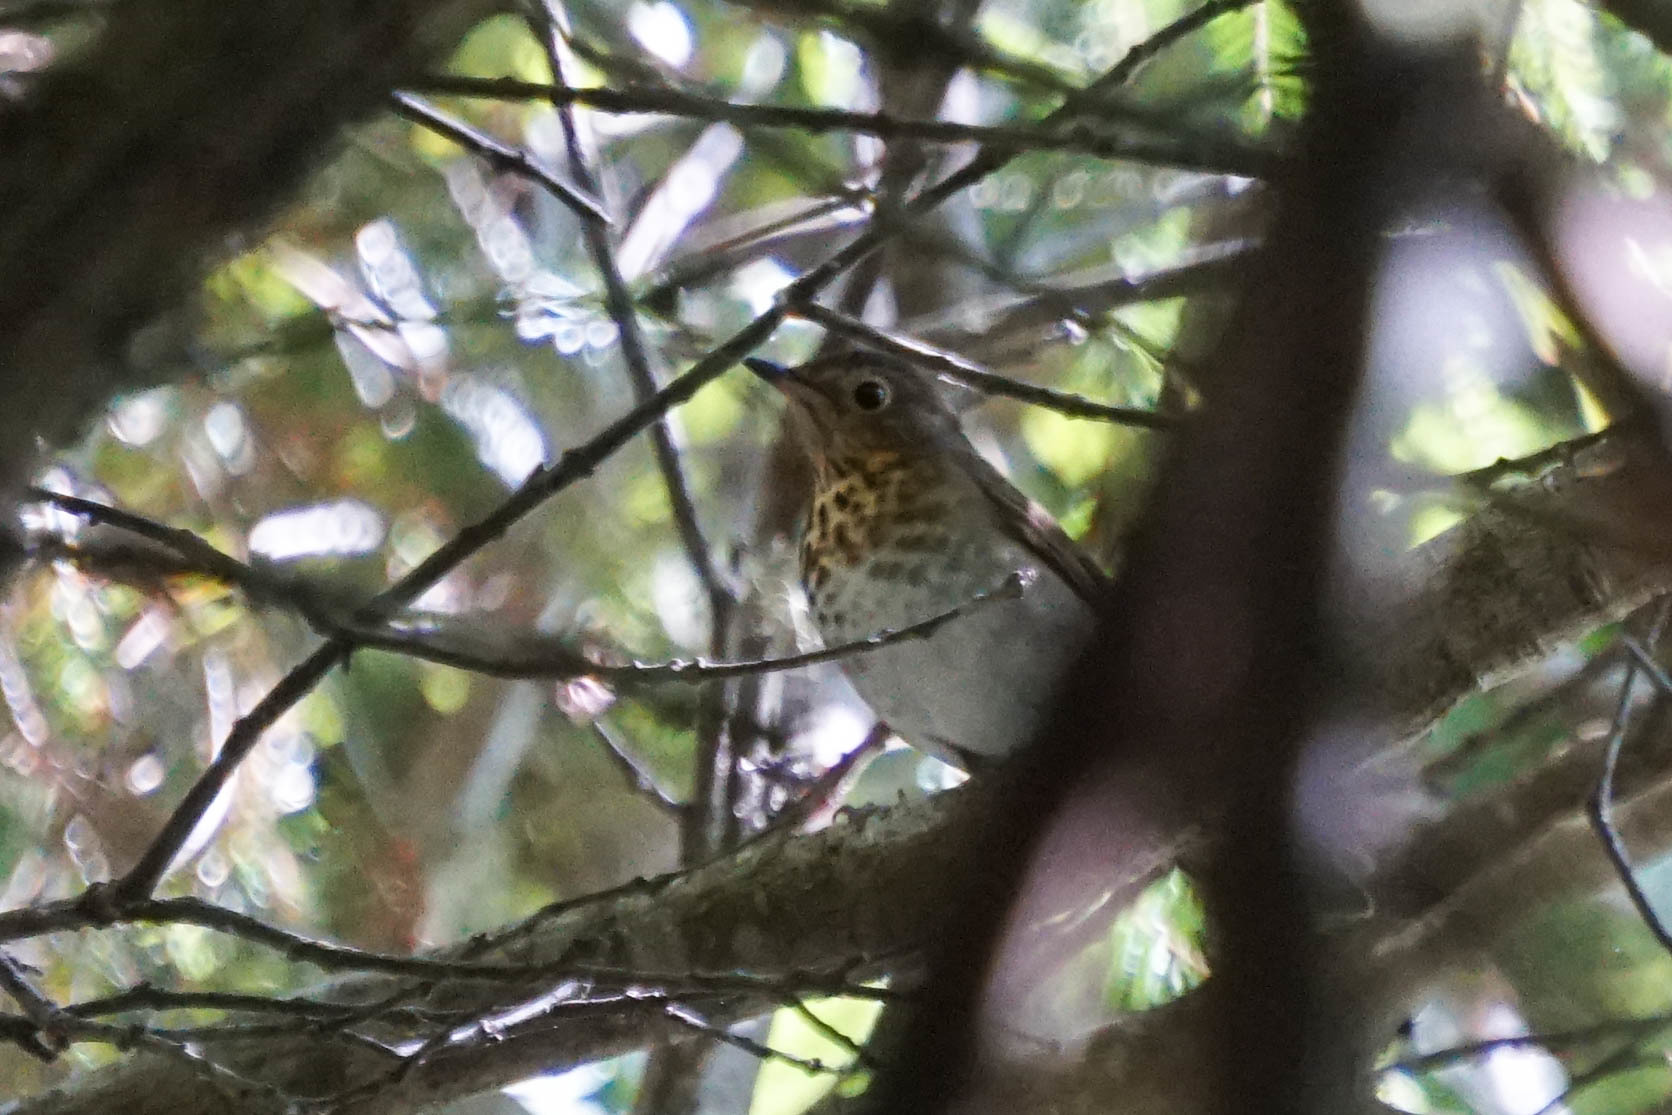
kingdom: Animalia
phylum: Chordata
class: Aves
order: Passeriformes
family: Turdidae
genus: Catharus
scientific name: Catharus ustulatus
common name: Swainson's thrush
